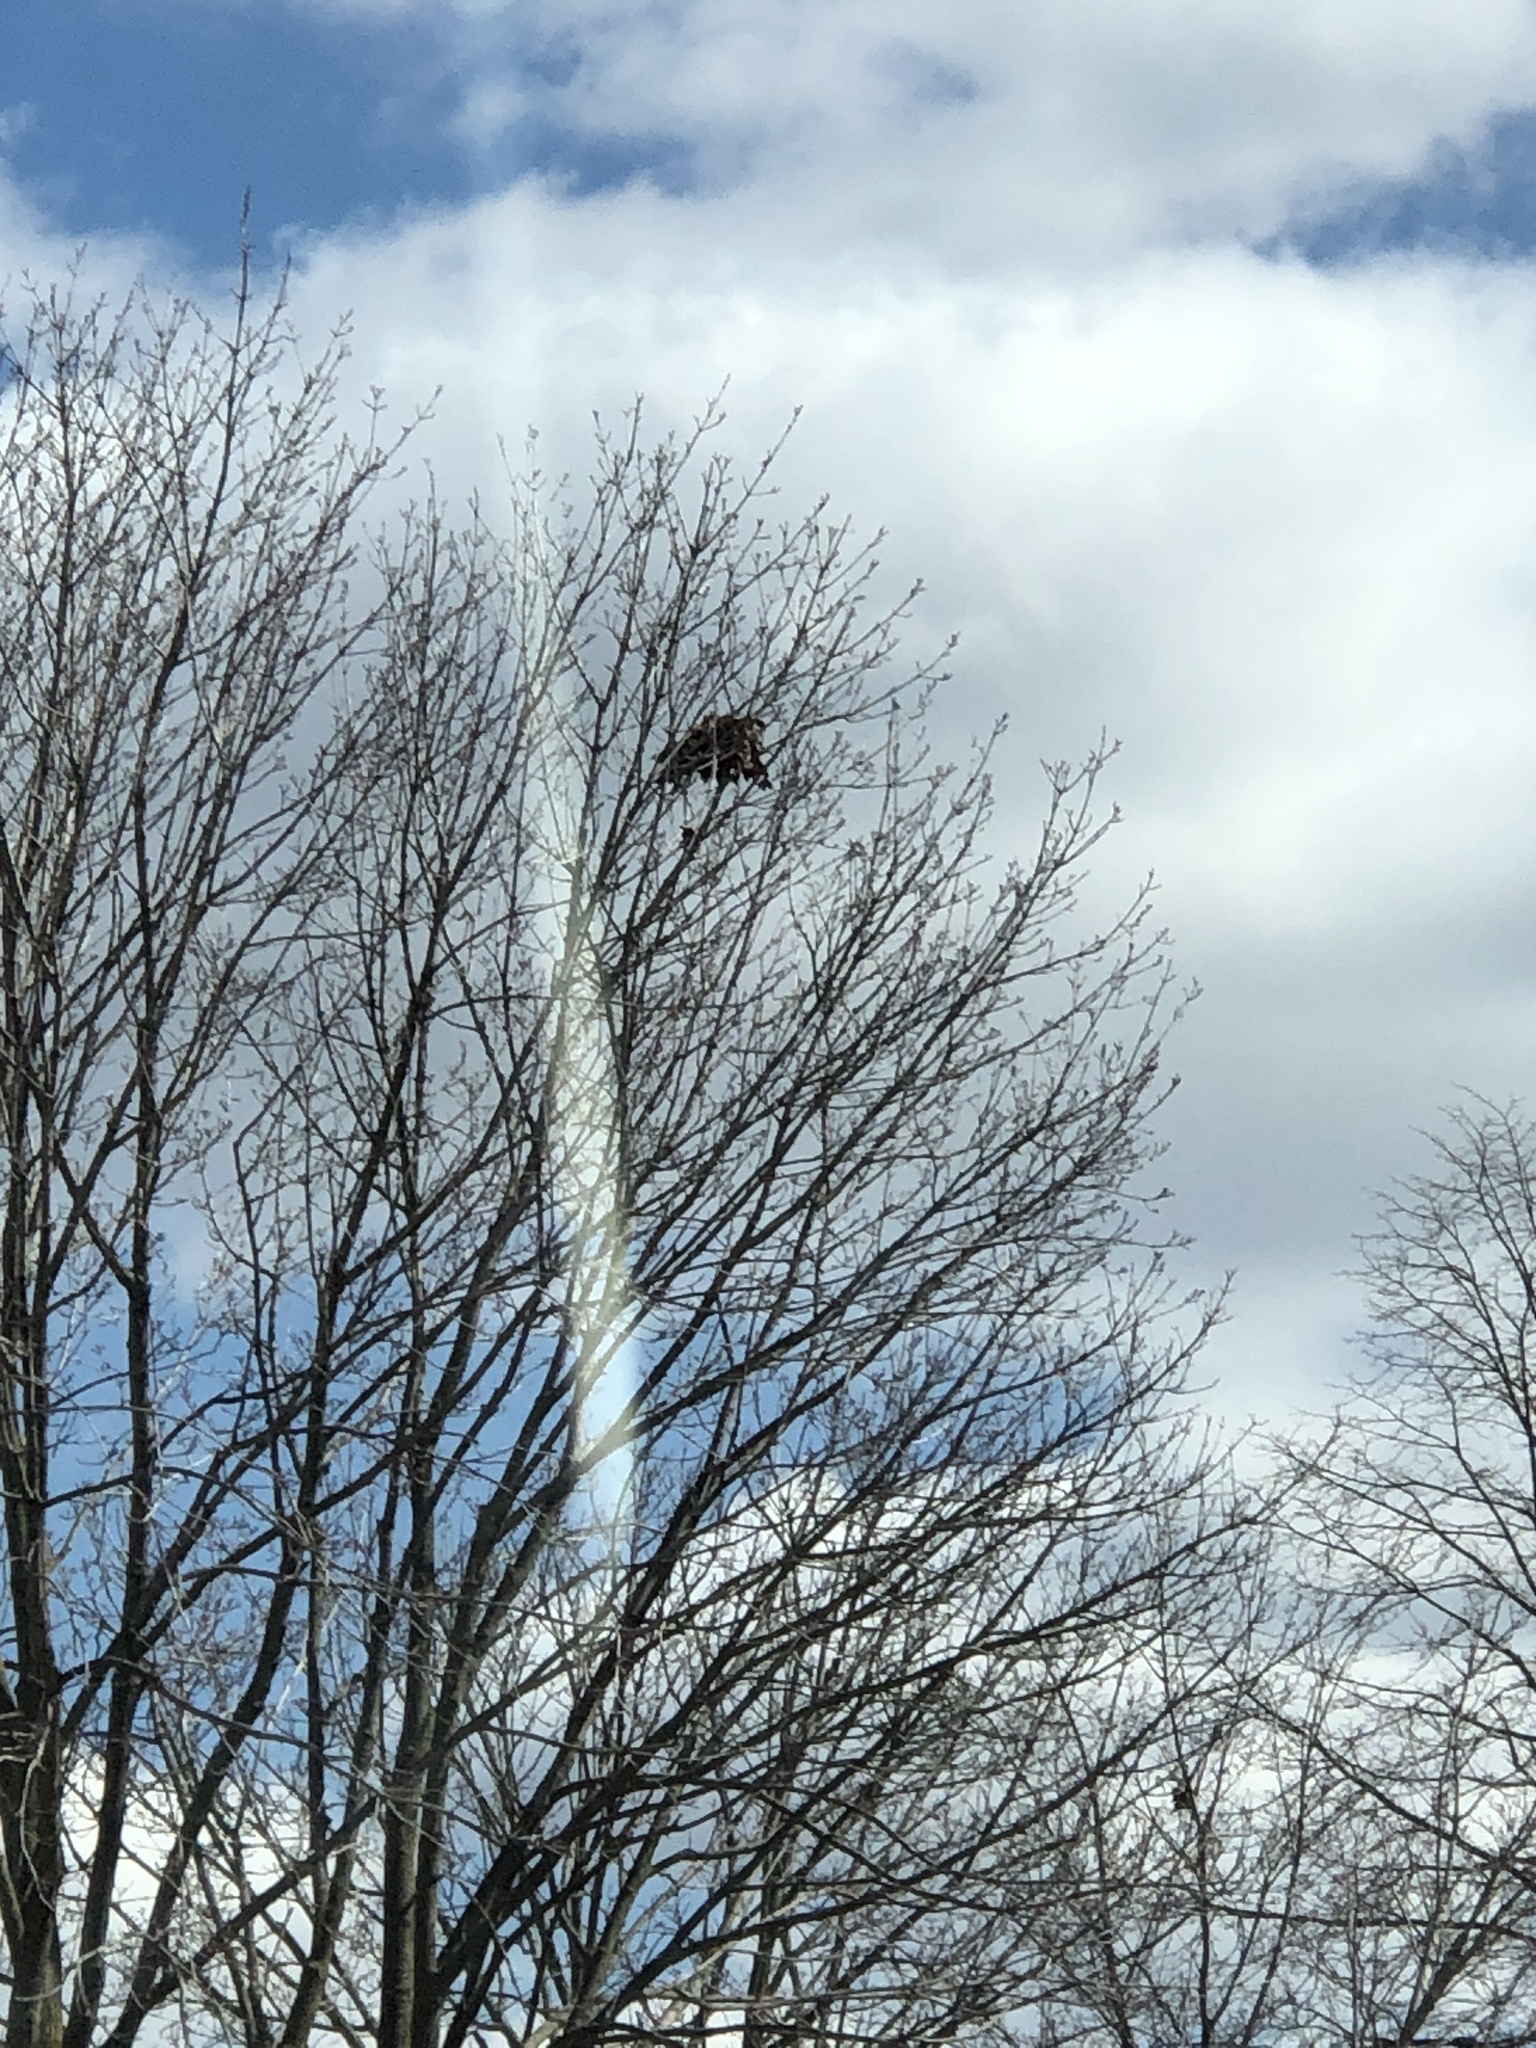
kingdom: Animalia
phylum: Chordata
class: Mammalia
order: Rodentia
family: Sciuridae
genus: Sciurus
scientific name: Sciurus carolinensis
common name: Eastern gray squirrel
